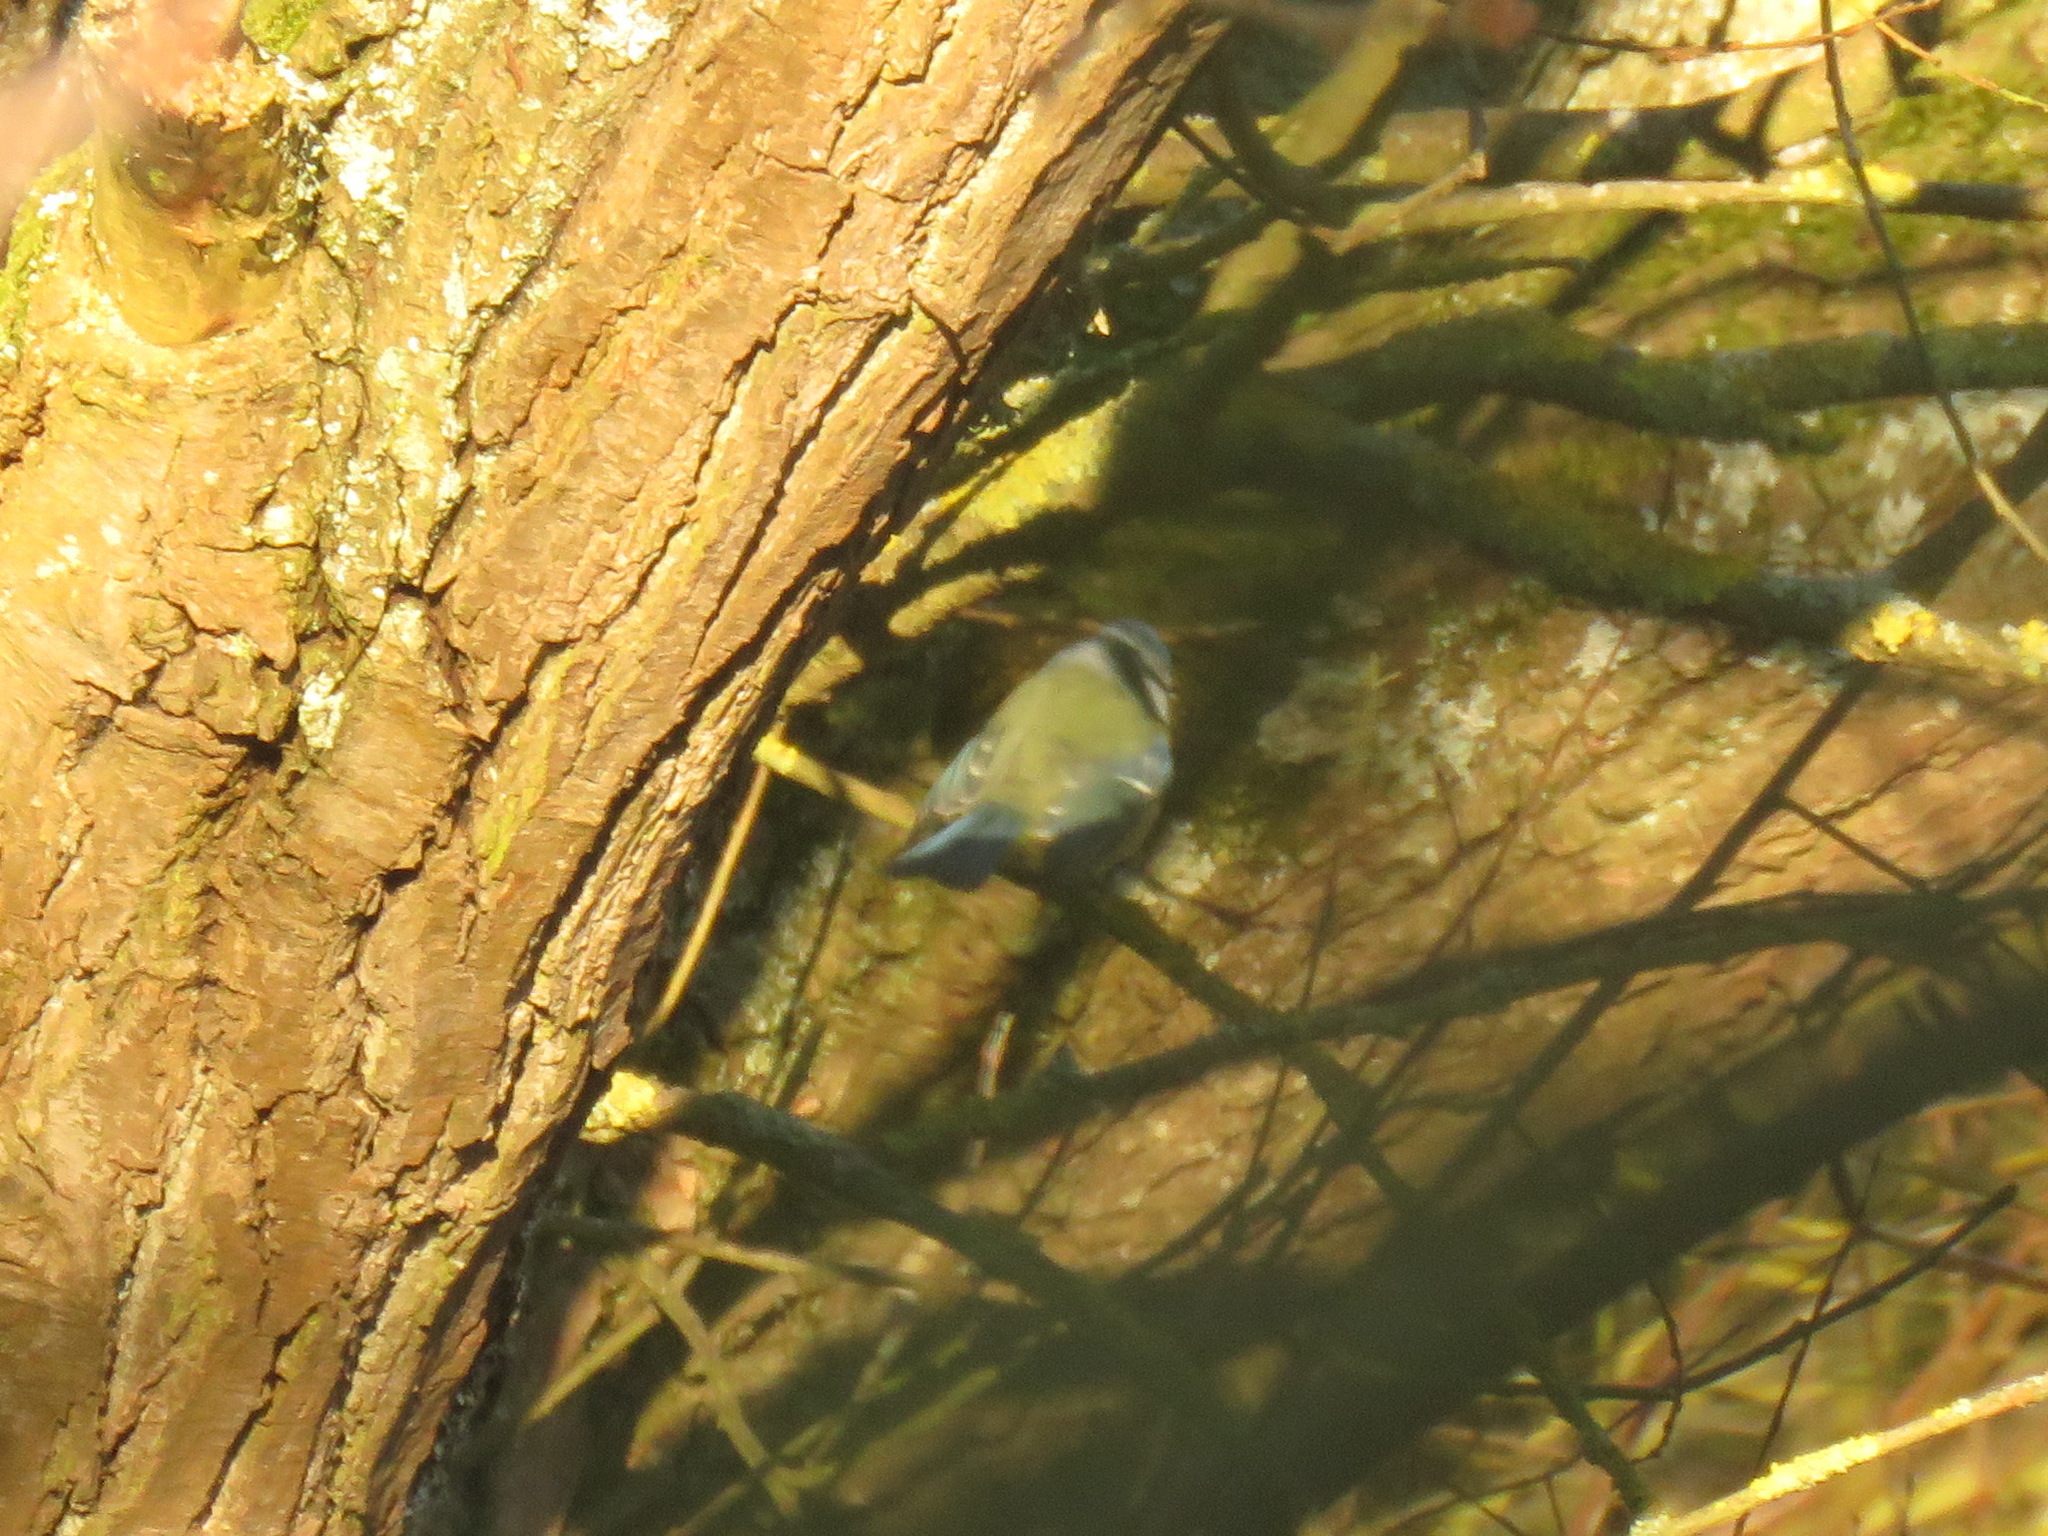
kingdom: Animalia
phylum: Chordata
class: Aves
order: Passeriformes
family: Paridae
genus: Cyanistes
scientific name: Cyanistes caeruleus
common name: Eurasian blue tit
